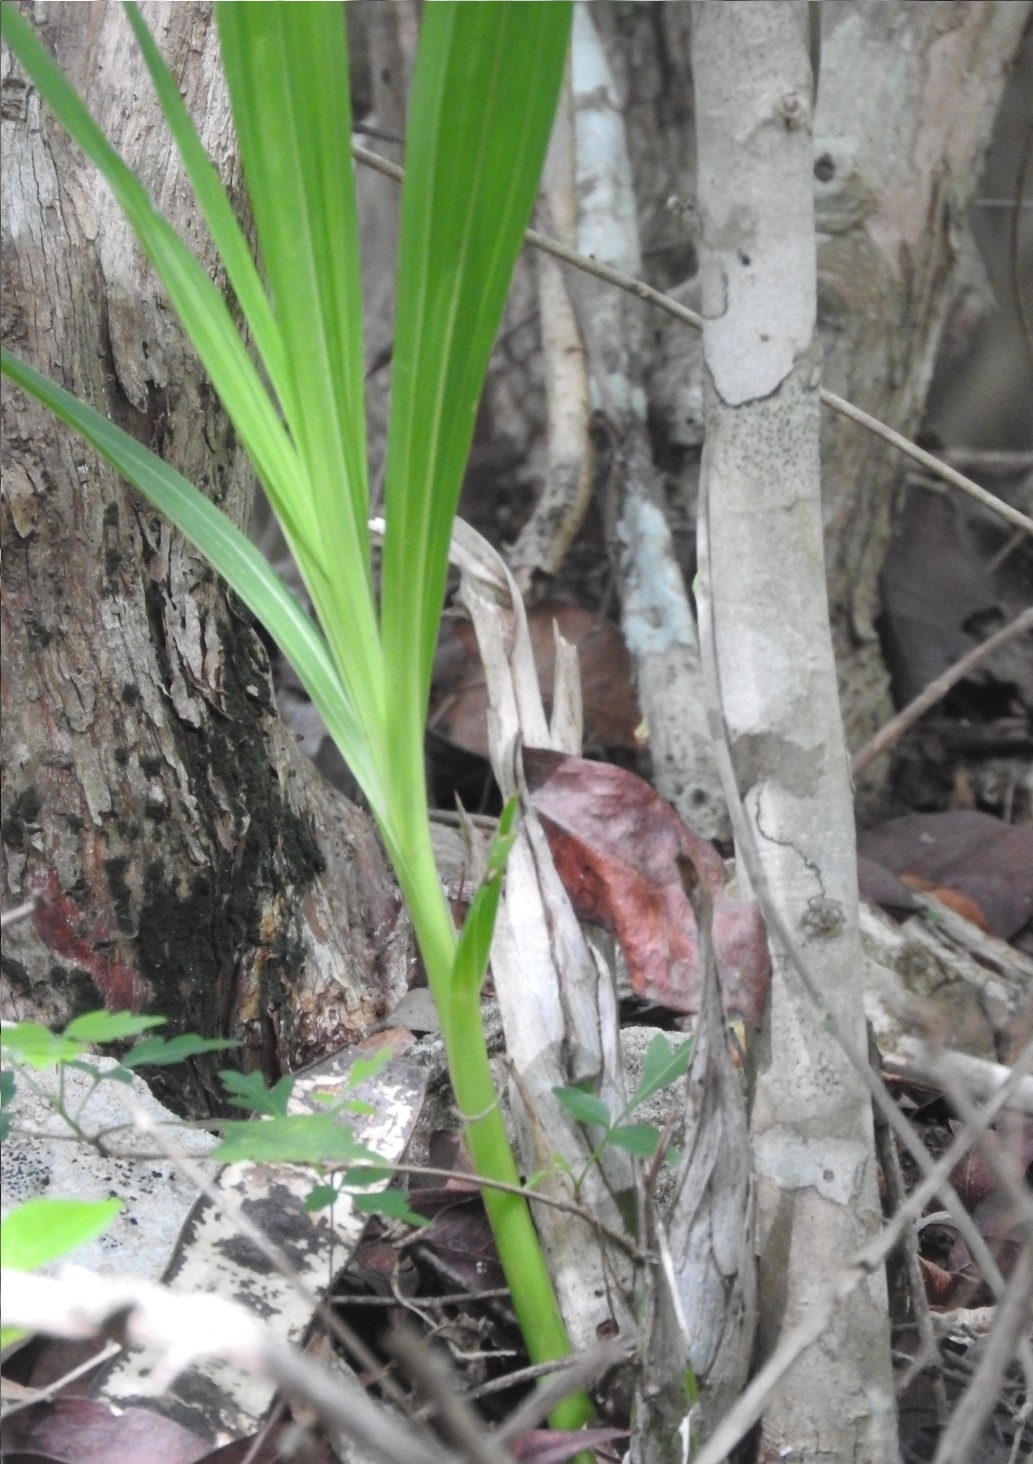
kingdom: Plantae
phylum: Tracheophyta
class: Liliopsida
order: Asparagales
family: Orchidaceae
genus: Cyrtopodium
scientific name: Cyrtopodium macrobulbon
